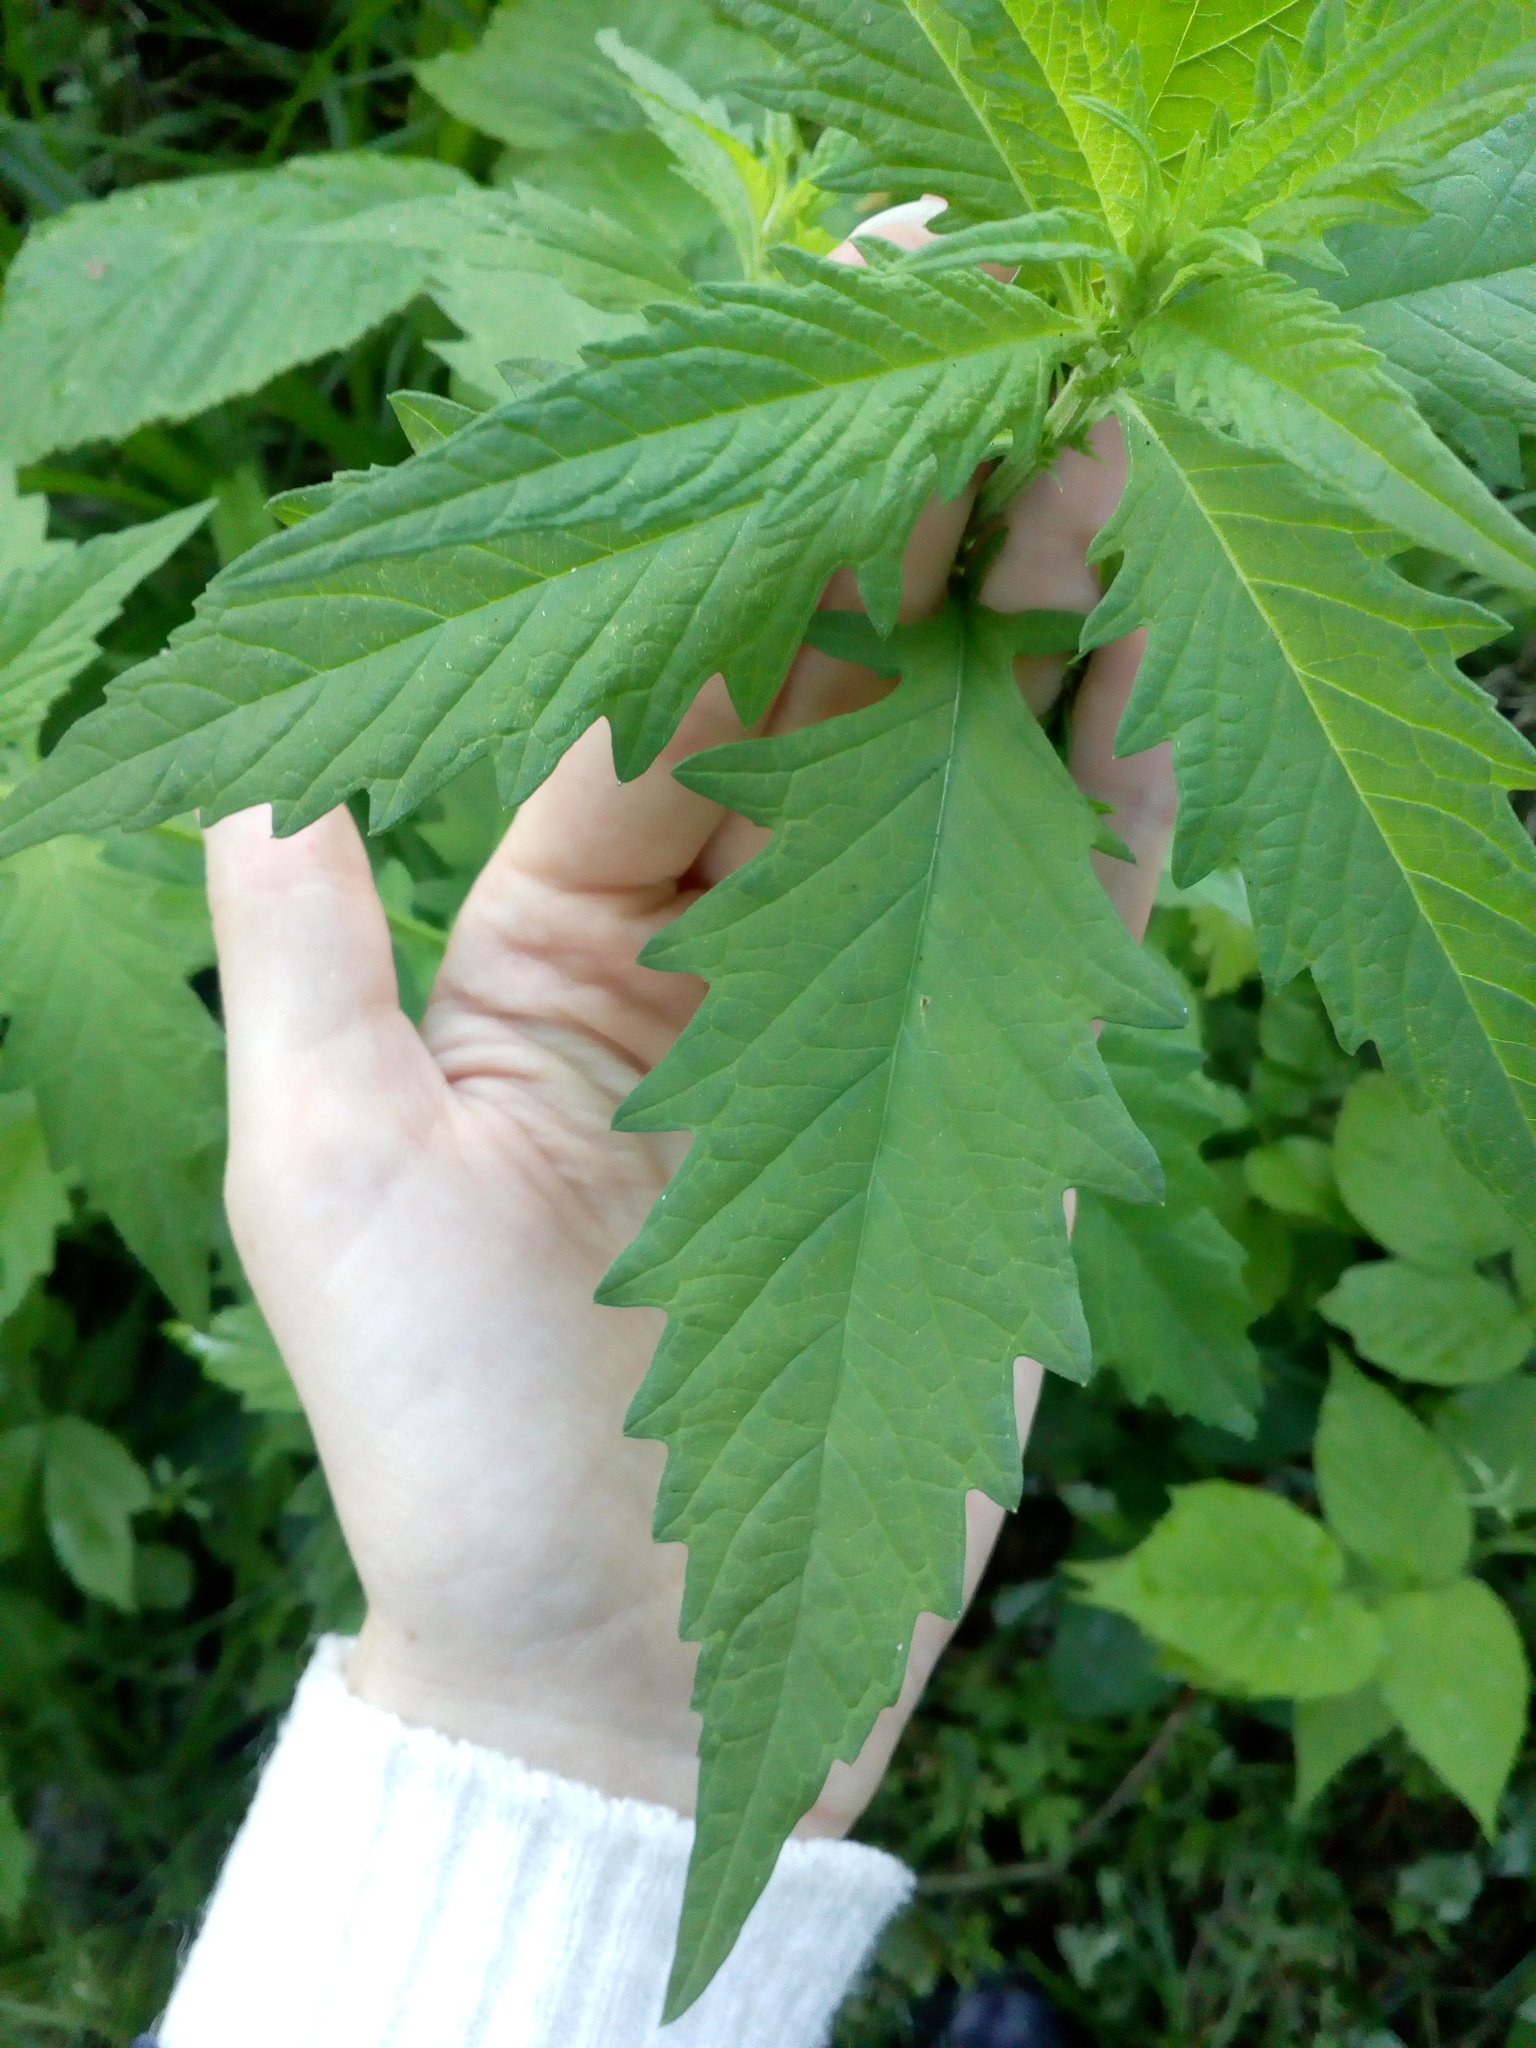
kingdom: Plantae
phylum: Tracheophyta
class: Magnoliopsida
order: Lamiales
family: Lamiaceae
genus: Lycopus
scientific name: Lycopus europaeus
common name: European bugleweed
